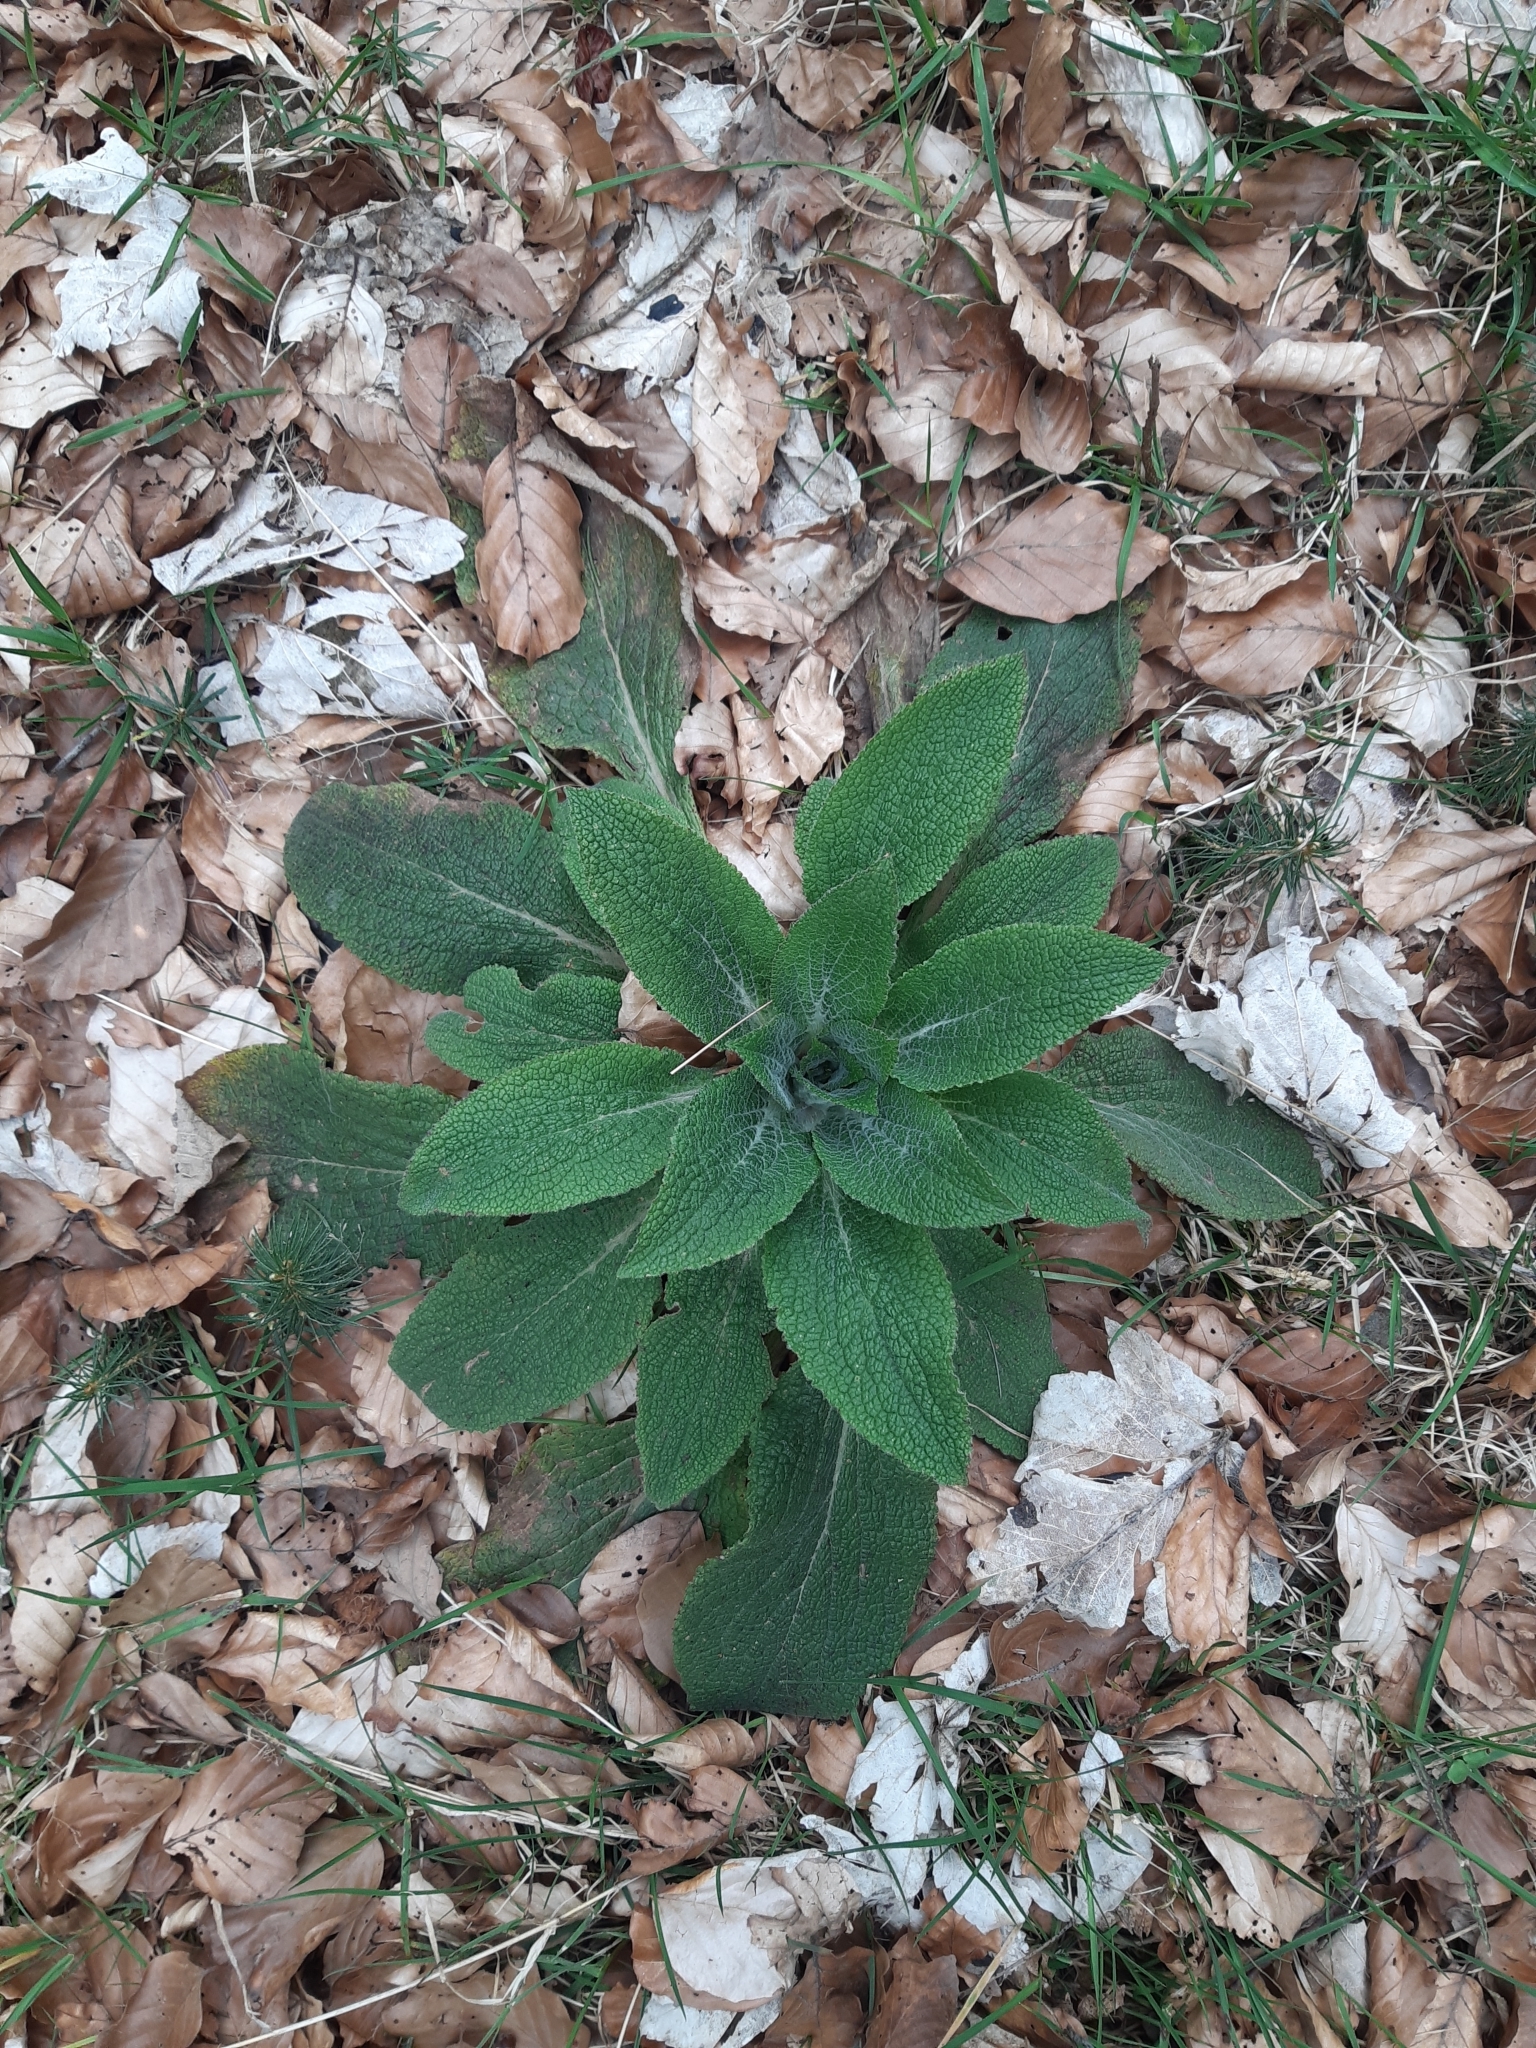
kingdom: Plantae
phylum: Tracheophyta
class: Magnoliopsida
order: Lamiales
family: Plantaginaceae
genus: Digitalis
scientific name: Digitalis purpurea
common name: Foxglove
